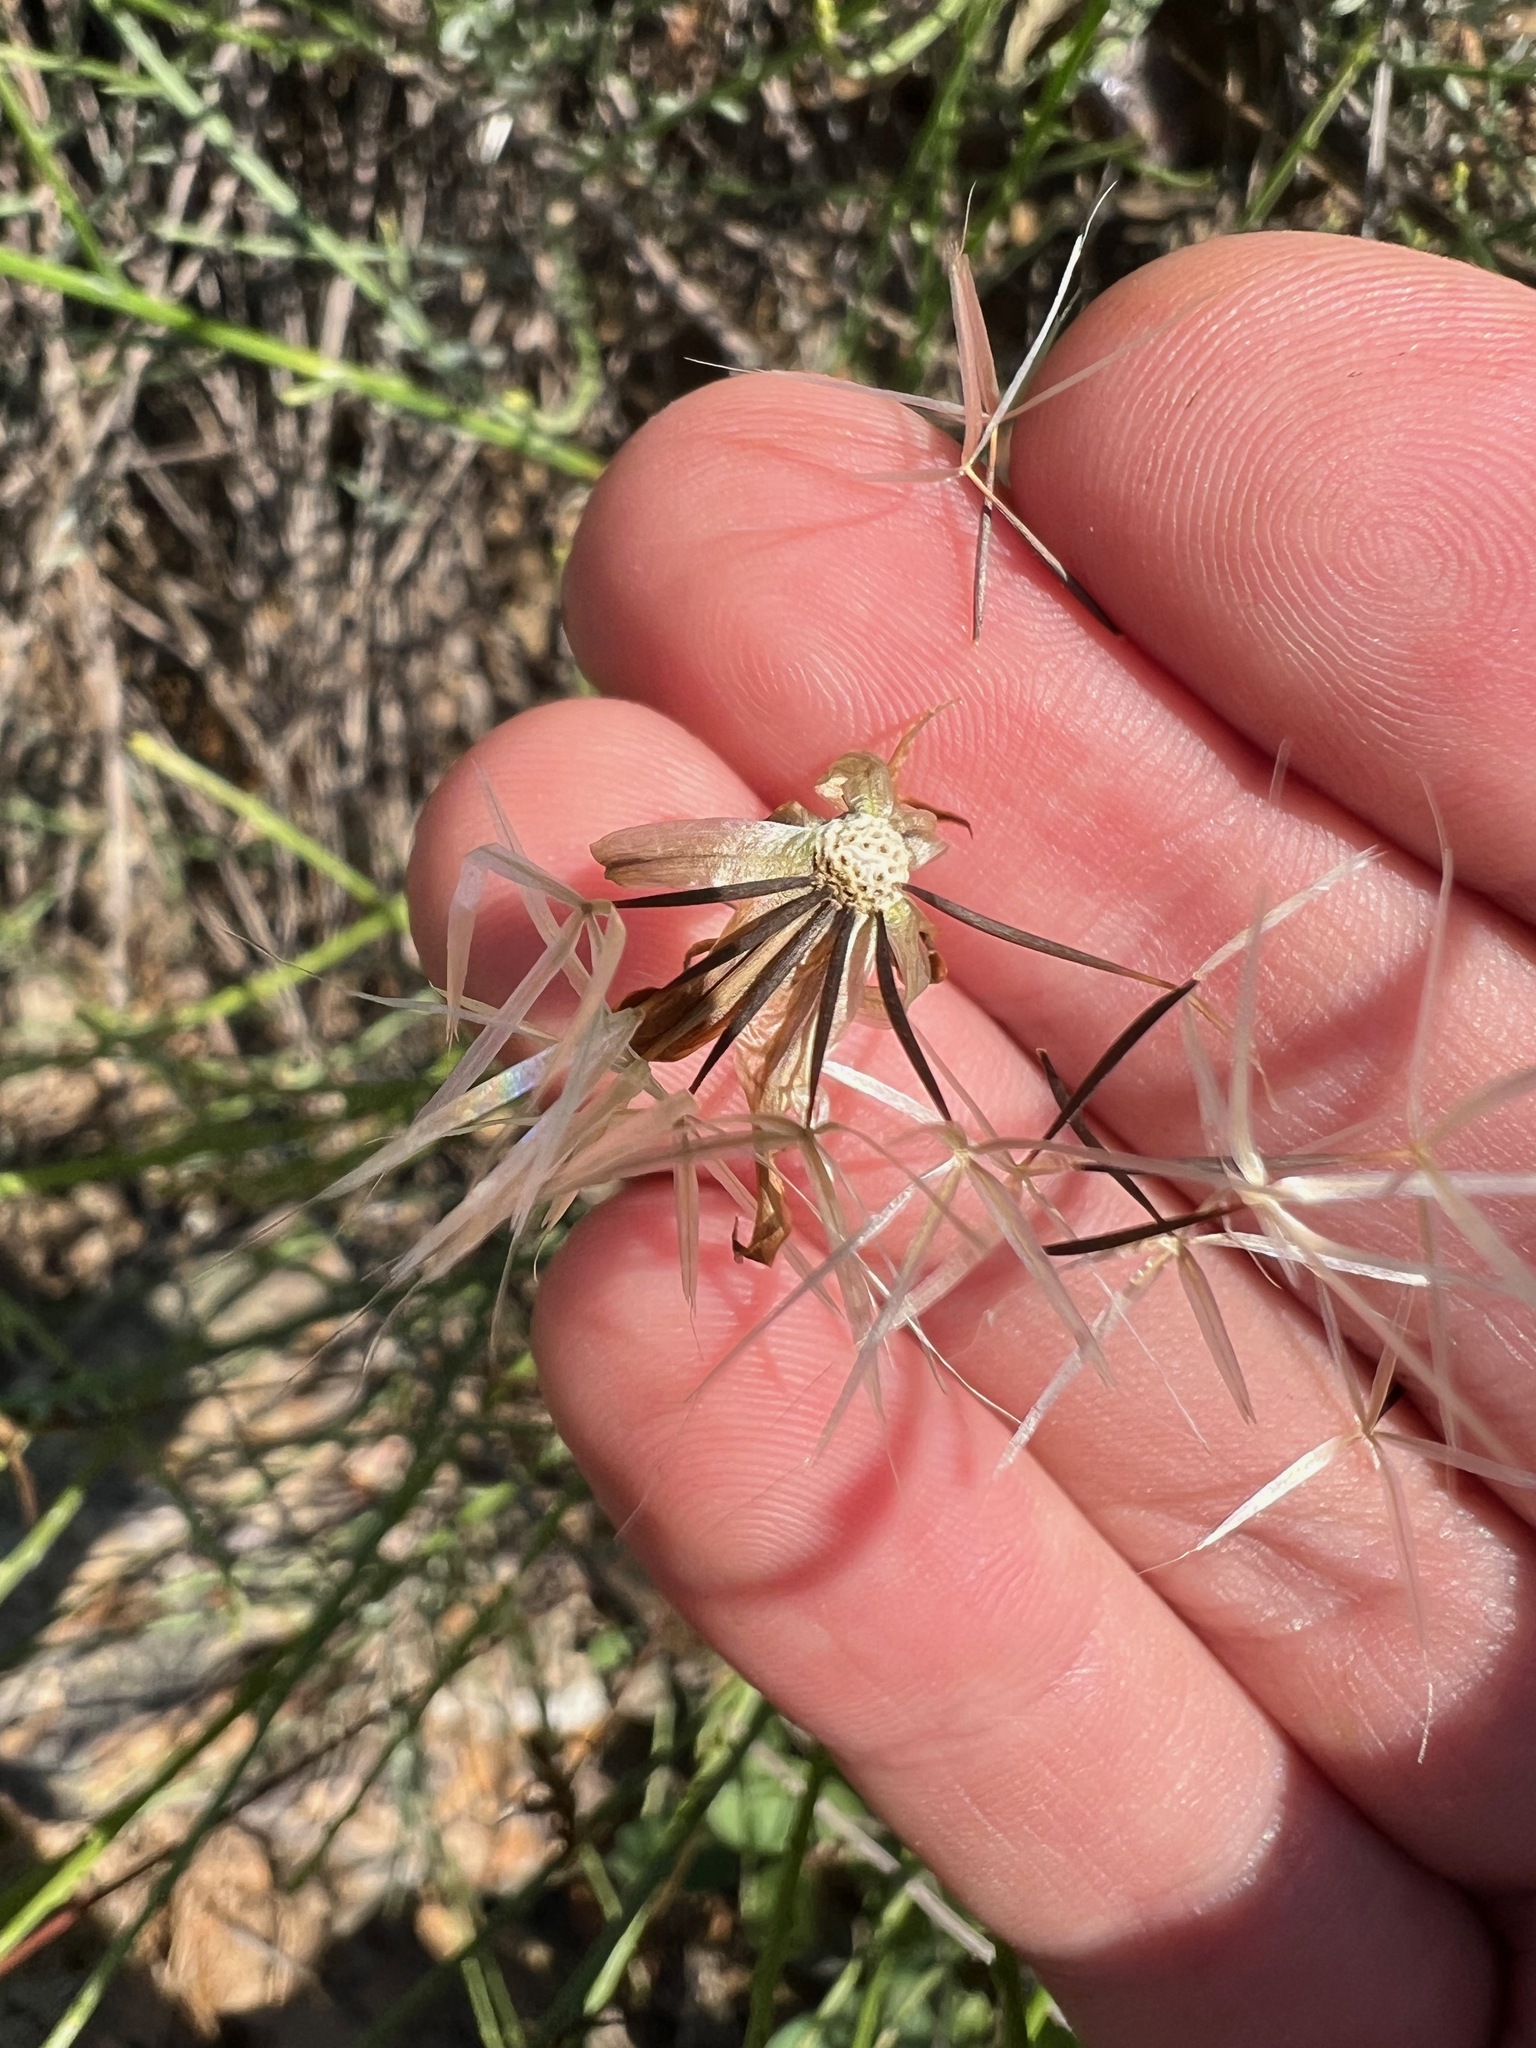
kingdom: Plantae
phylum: Tracheophyta
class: Magnoliopsida
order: Asterales
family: Asteraceae
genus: Microseris
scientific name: Microseris lindleyi
